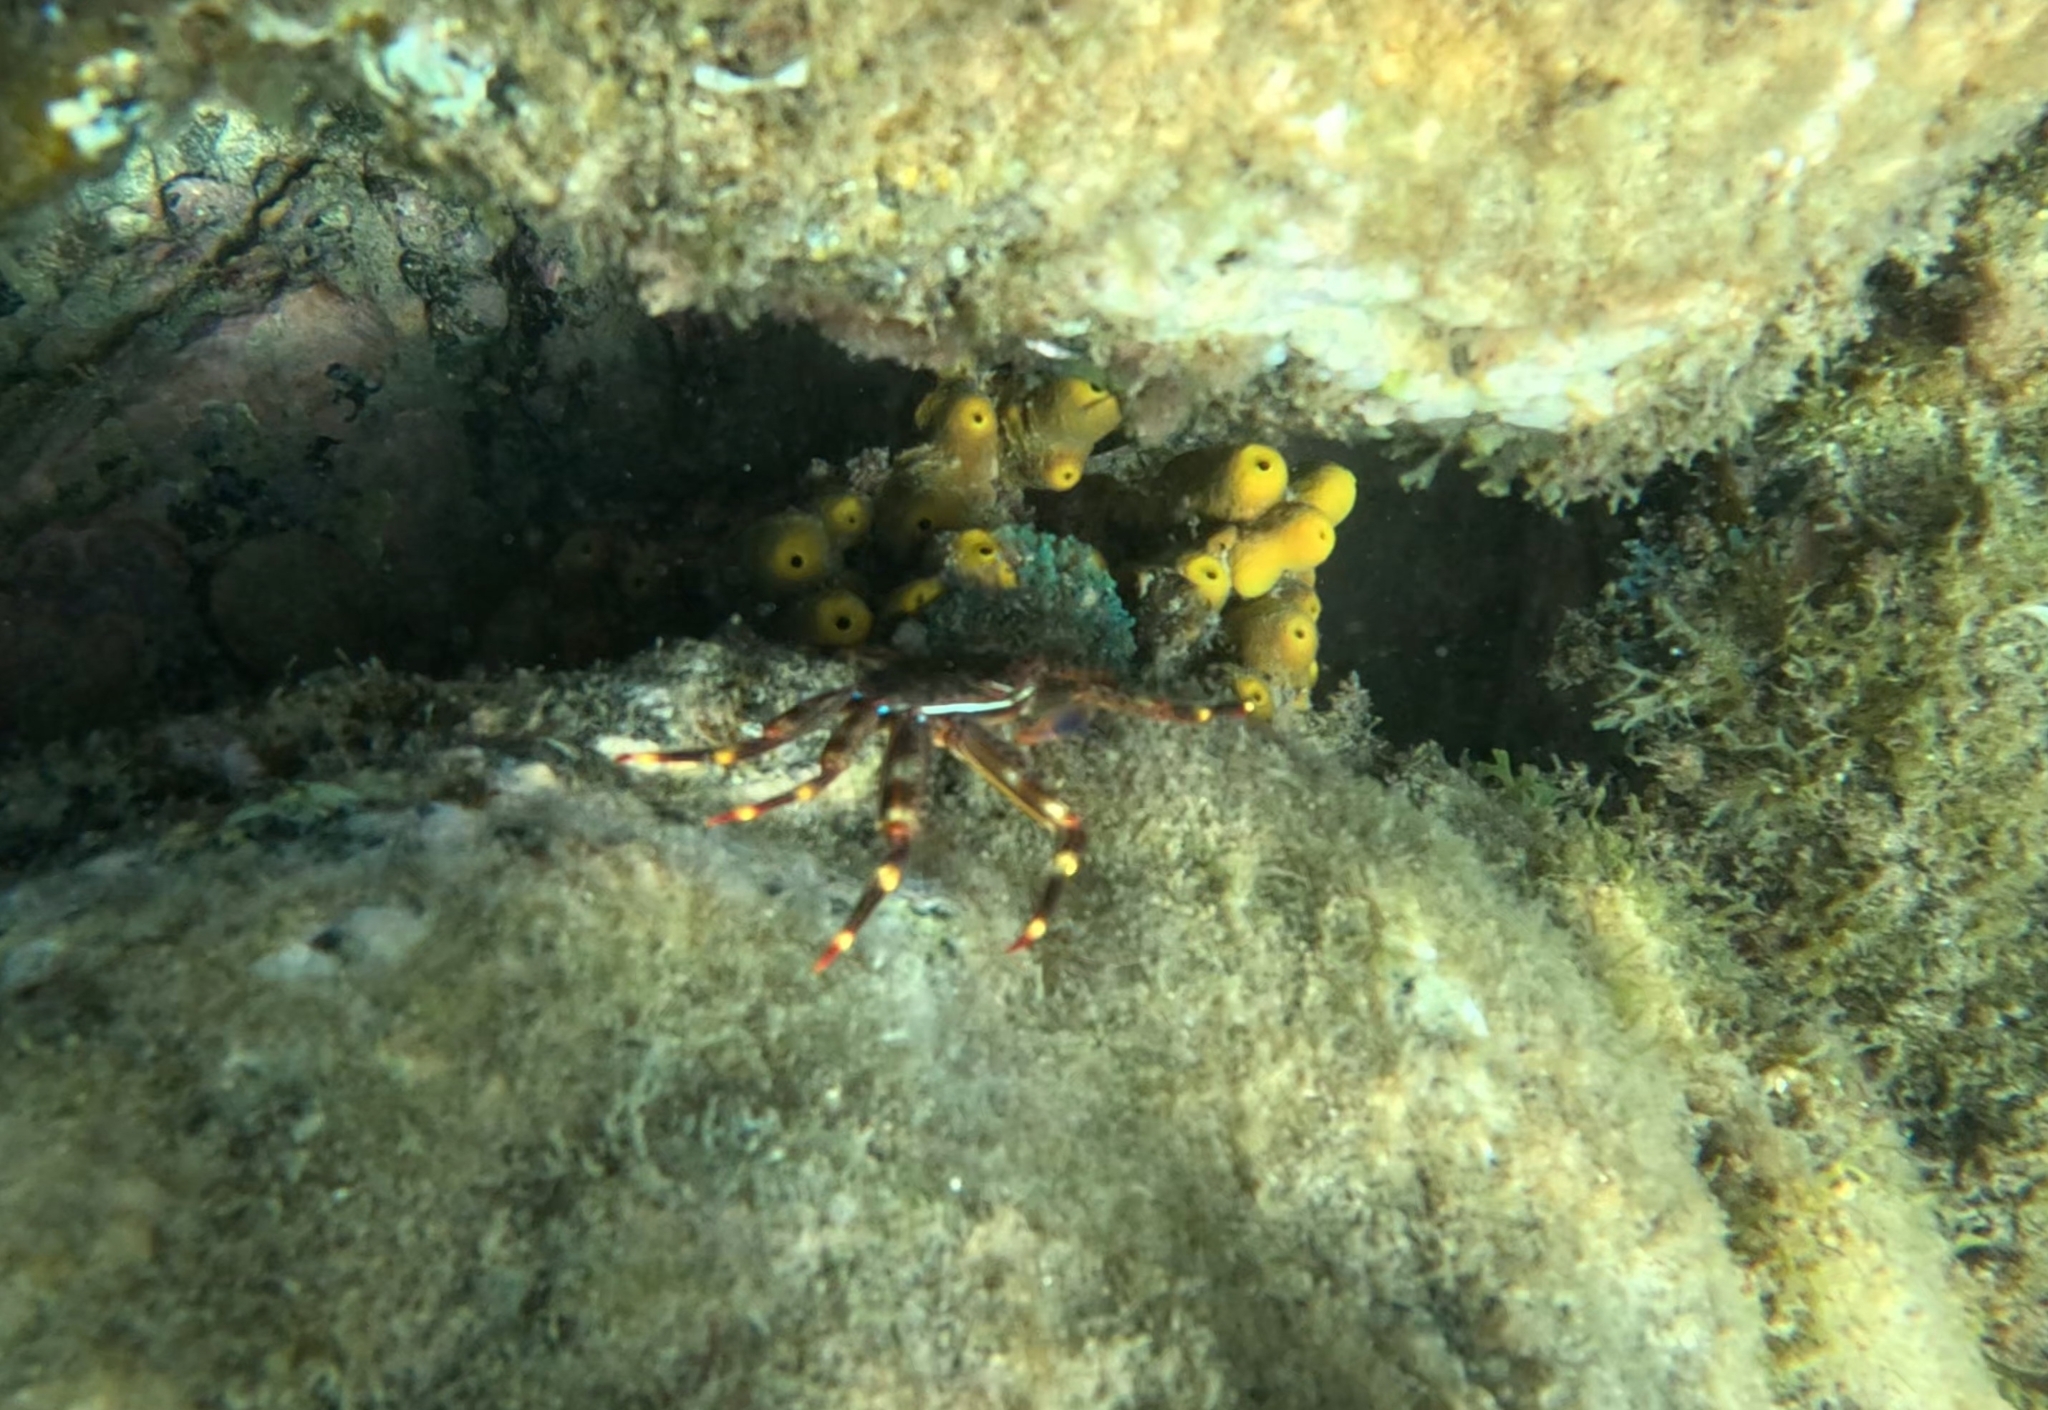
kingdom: Animalia
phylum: Arthropoda
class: Malacostraca
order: Decapoda
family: Percnidae
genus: Percnon
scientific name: Percnon gibbesi
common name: Nimble spray crab
